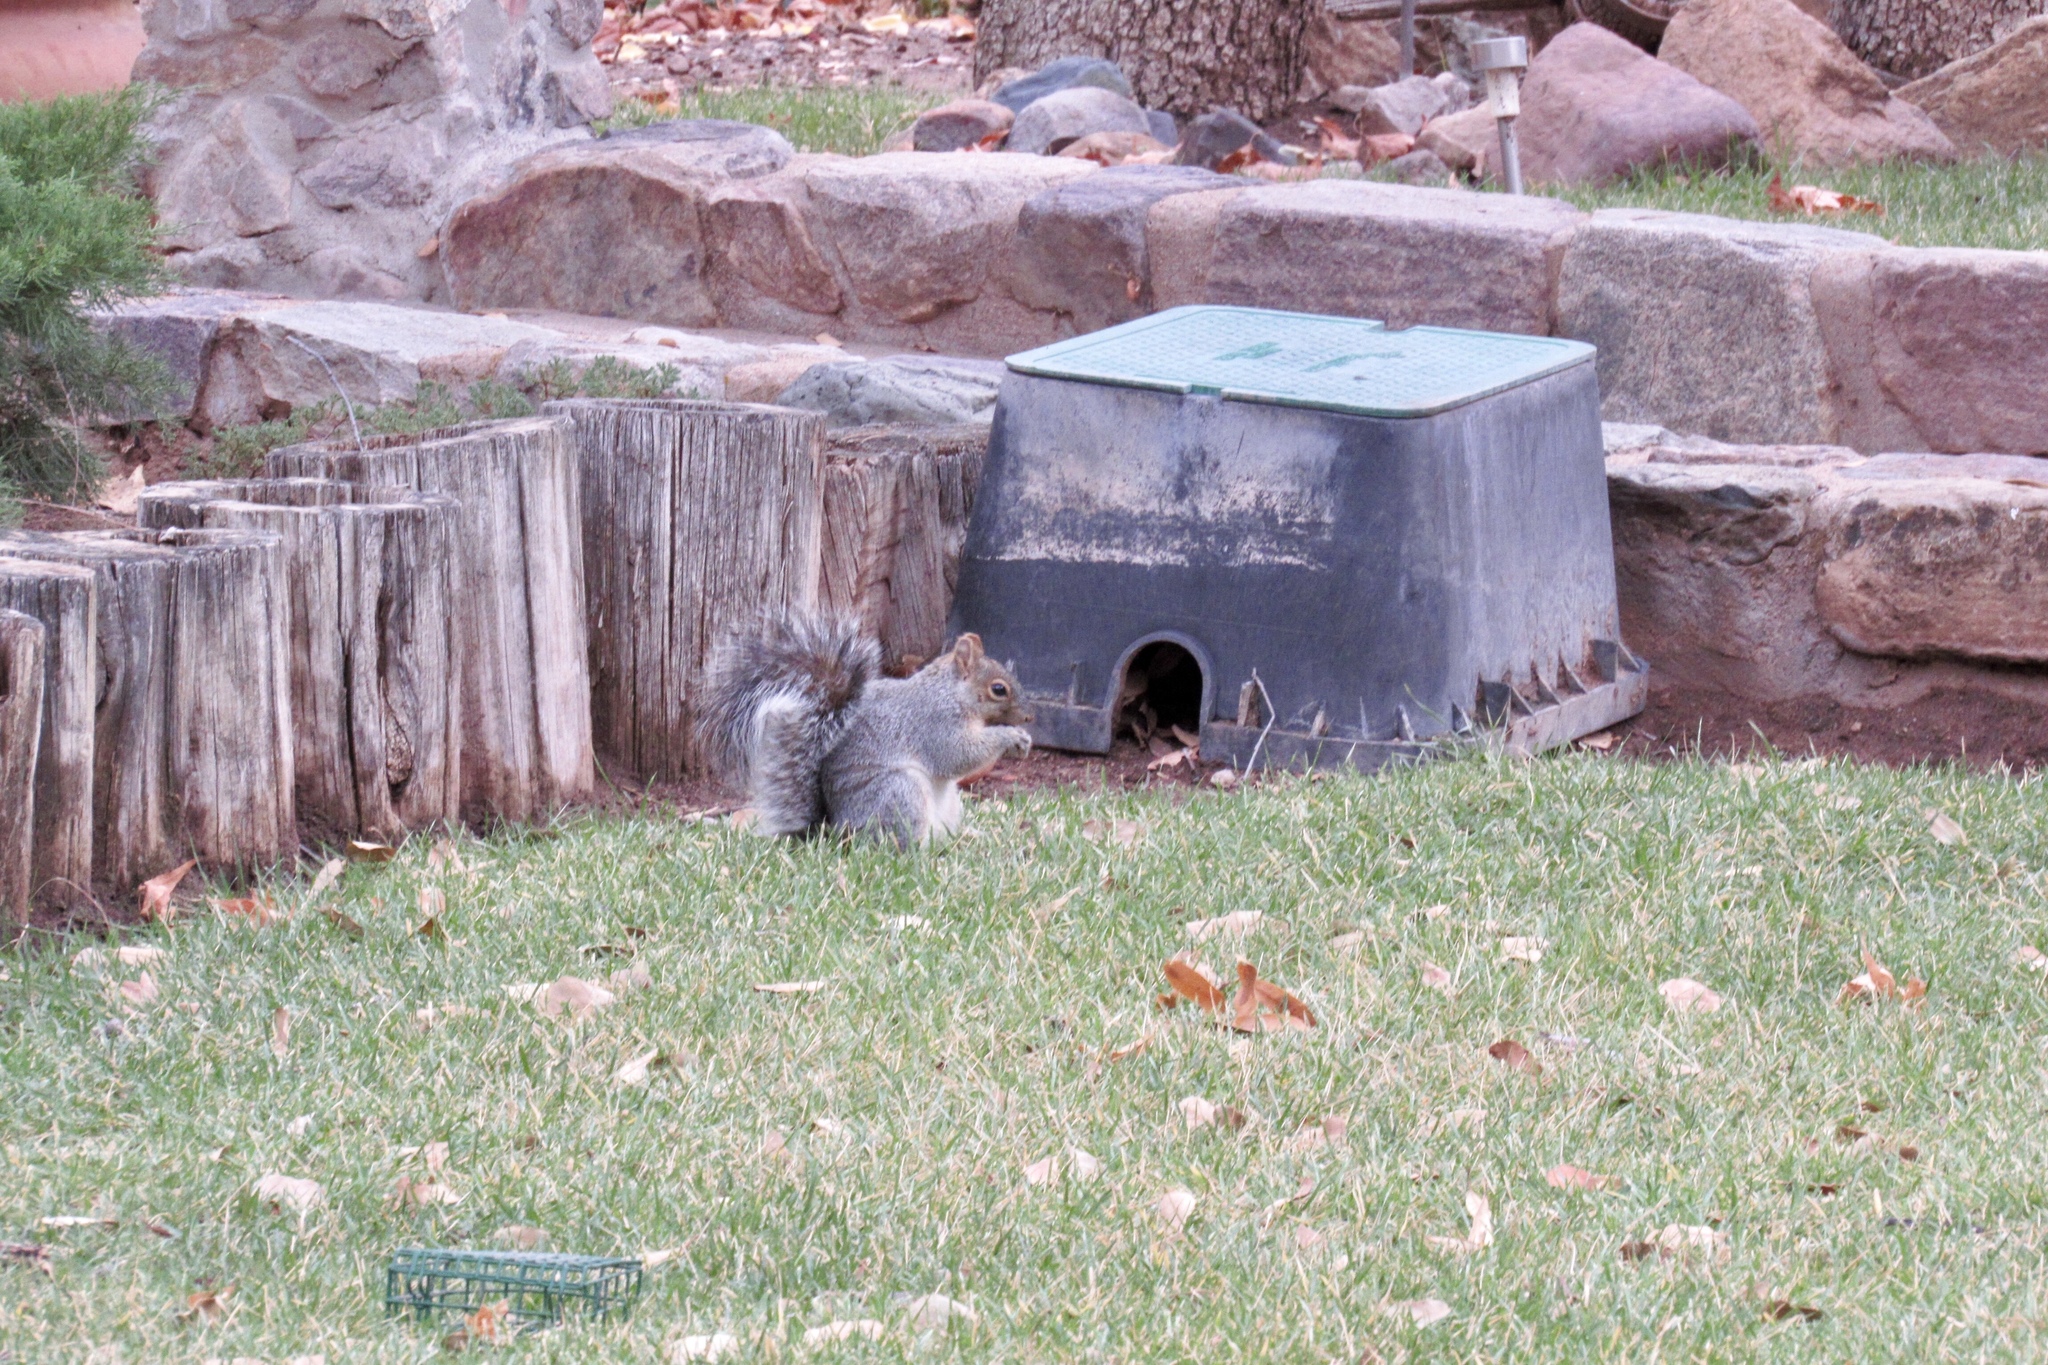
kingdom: Animalia
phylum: Chordata
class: Mammalia
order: Rodentia
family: Sciuridae
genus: Sciurus
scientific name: Sciurus arizonensis
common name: Arizona gray squirrel
